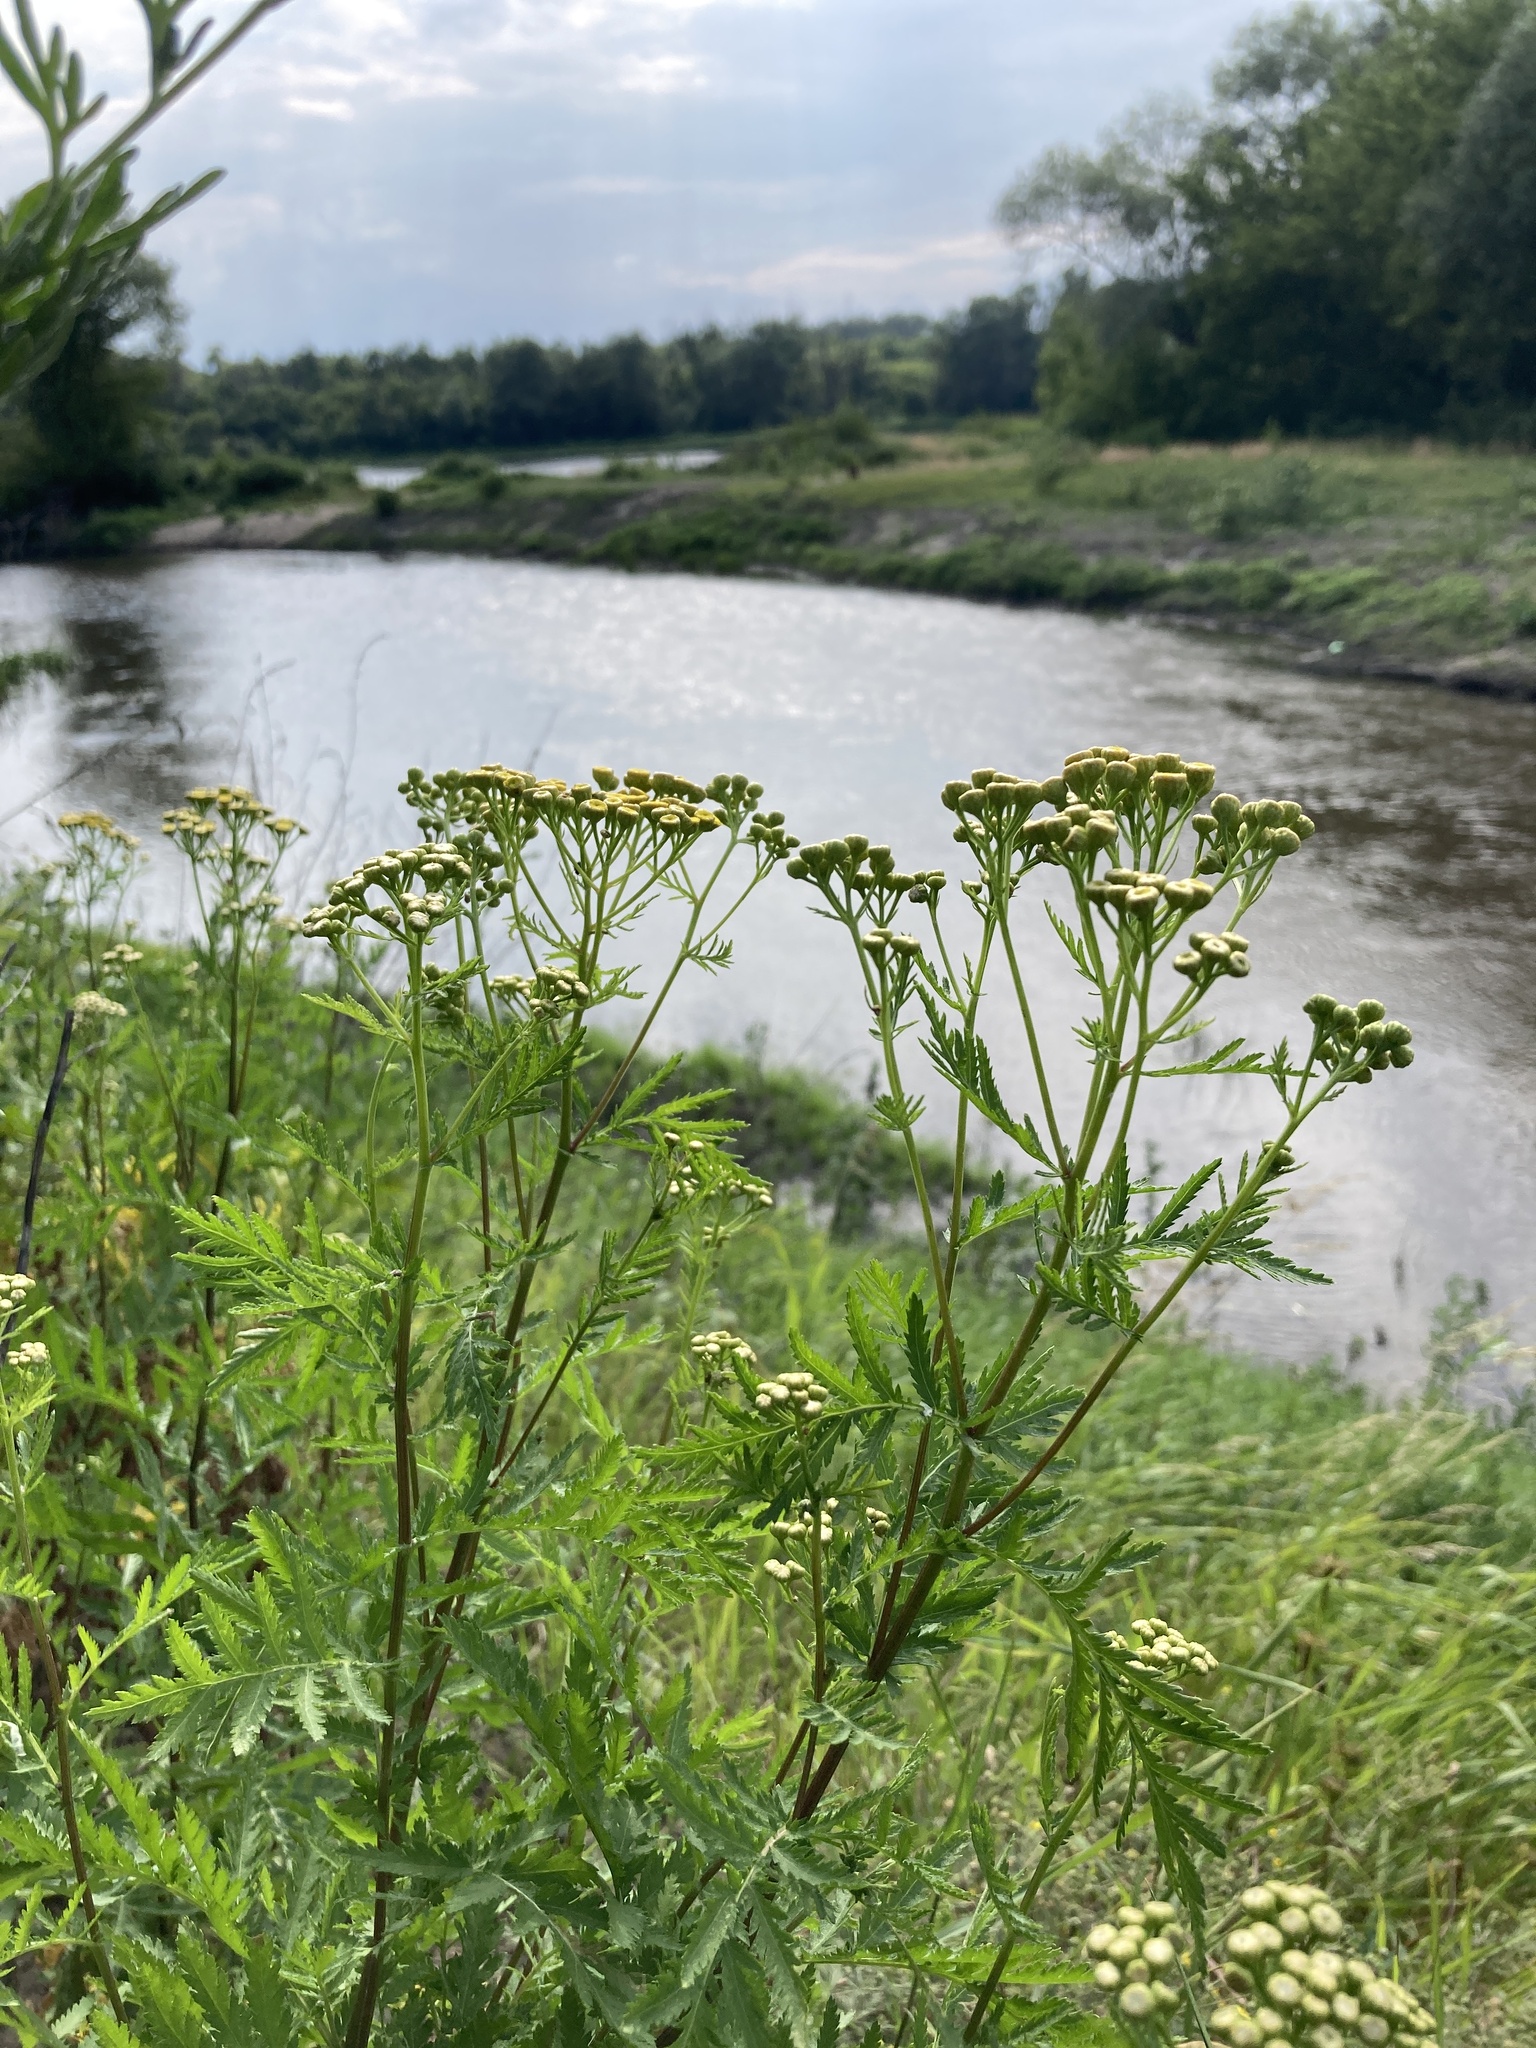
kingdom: Plantae
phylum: Tracheophyta
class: Magnoliopsida
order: Asterales
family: Asteraceae
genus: Tanacetum
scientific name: Tanacetum vulgare
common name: Common tansy
